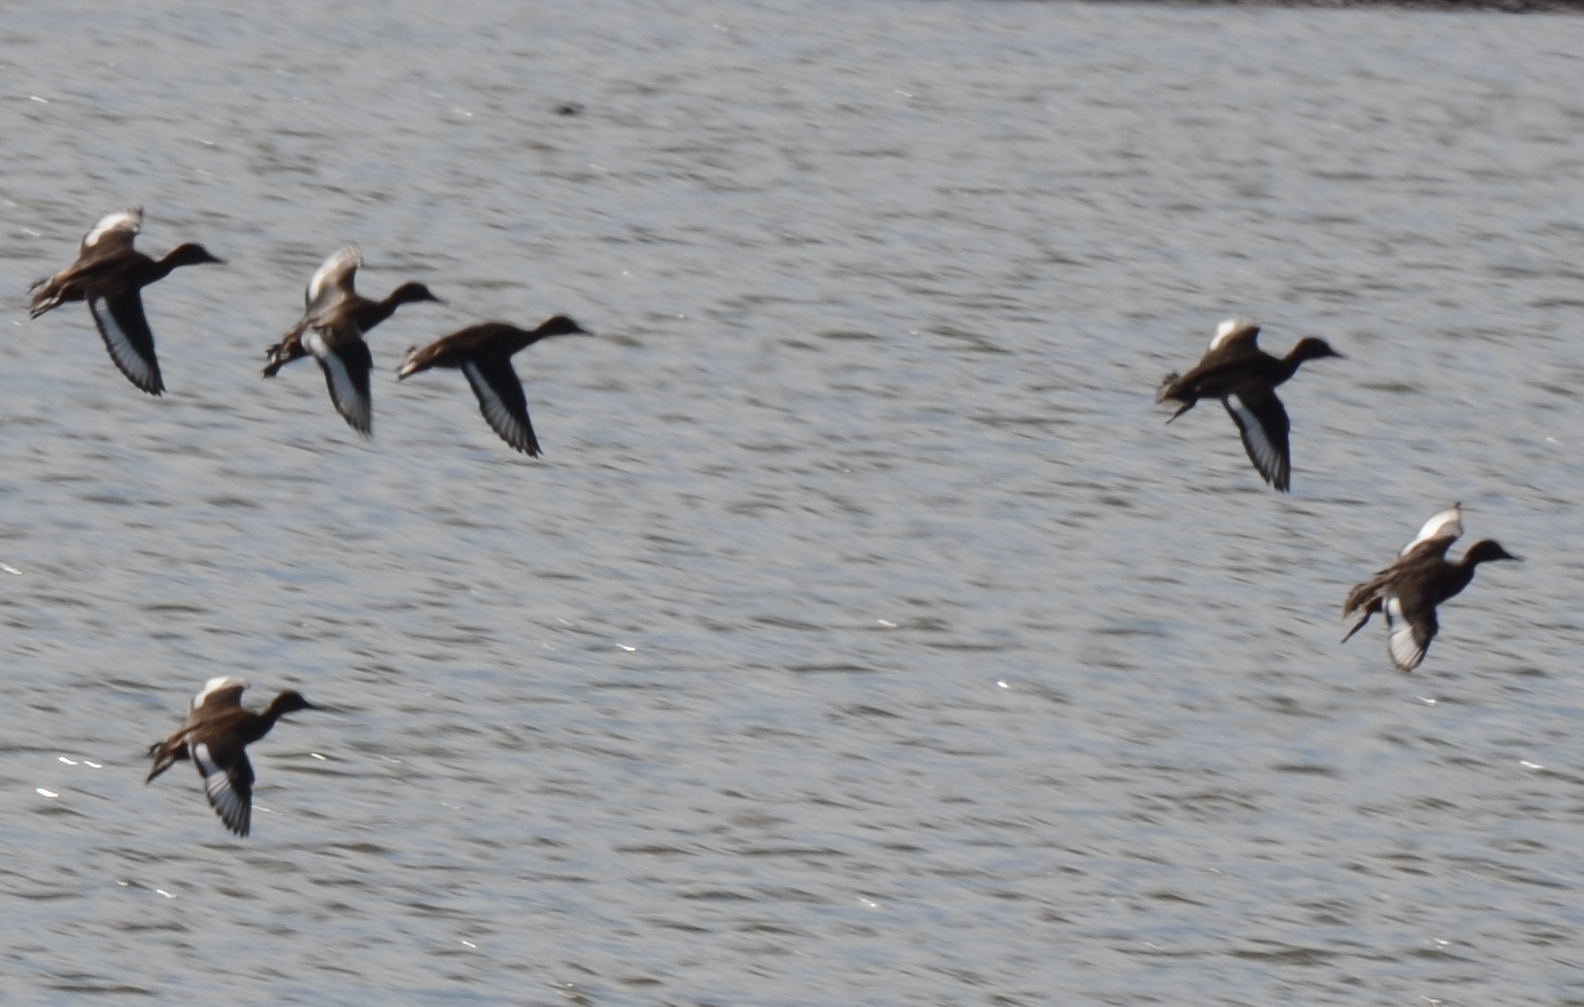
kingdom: Animalia
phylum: Chordata
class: Aves
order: Anseriformes
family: Anatidae
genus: Aythya
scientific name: Aythya nyroca
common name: Ferruginous duck
